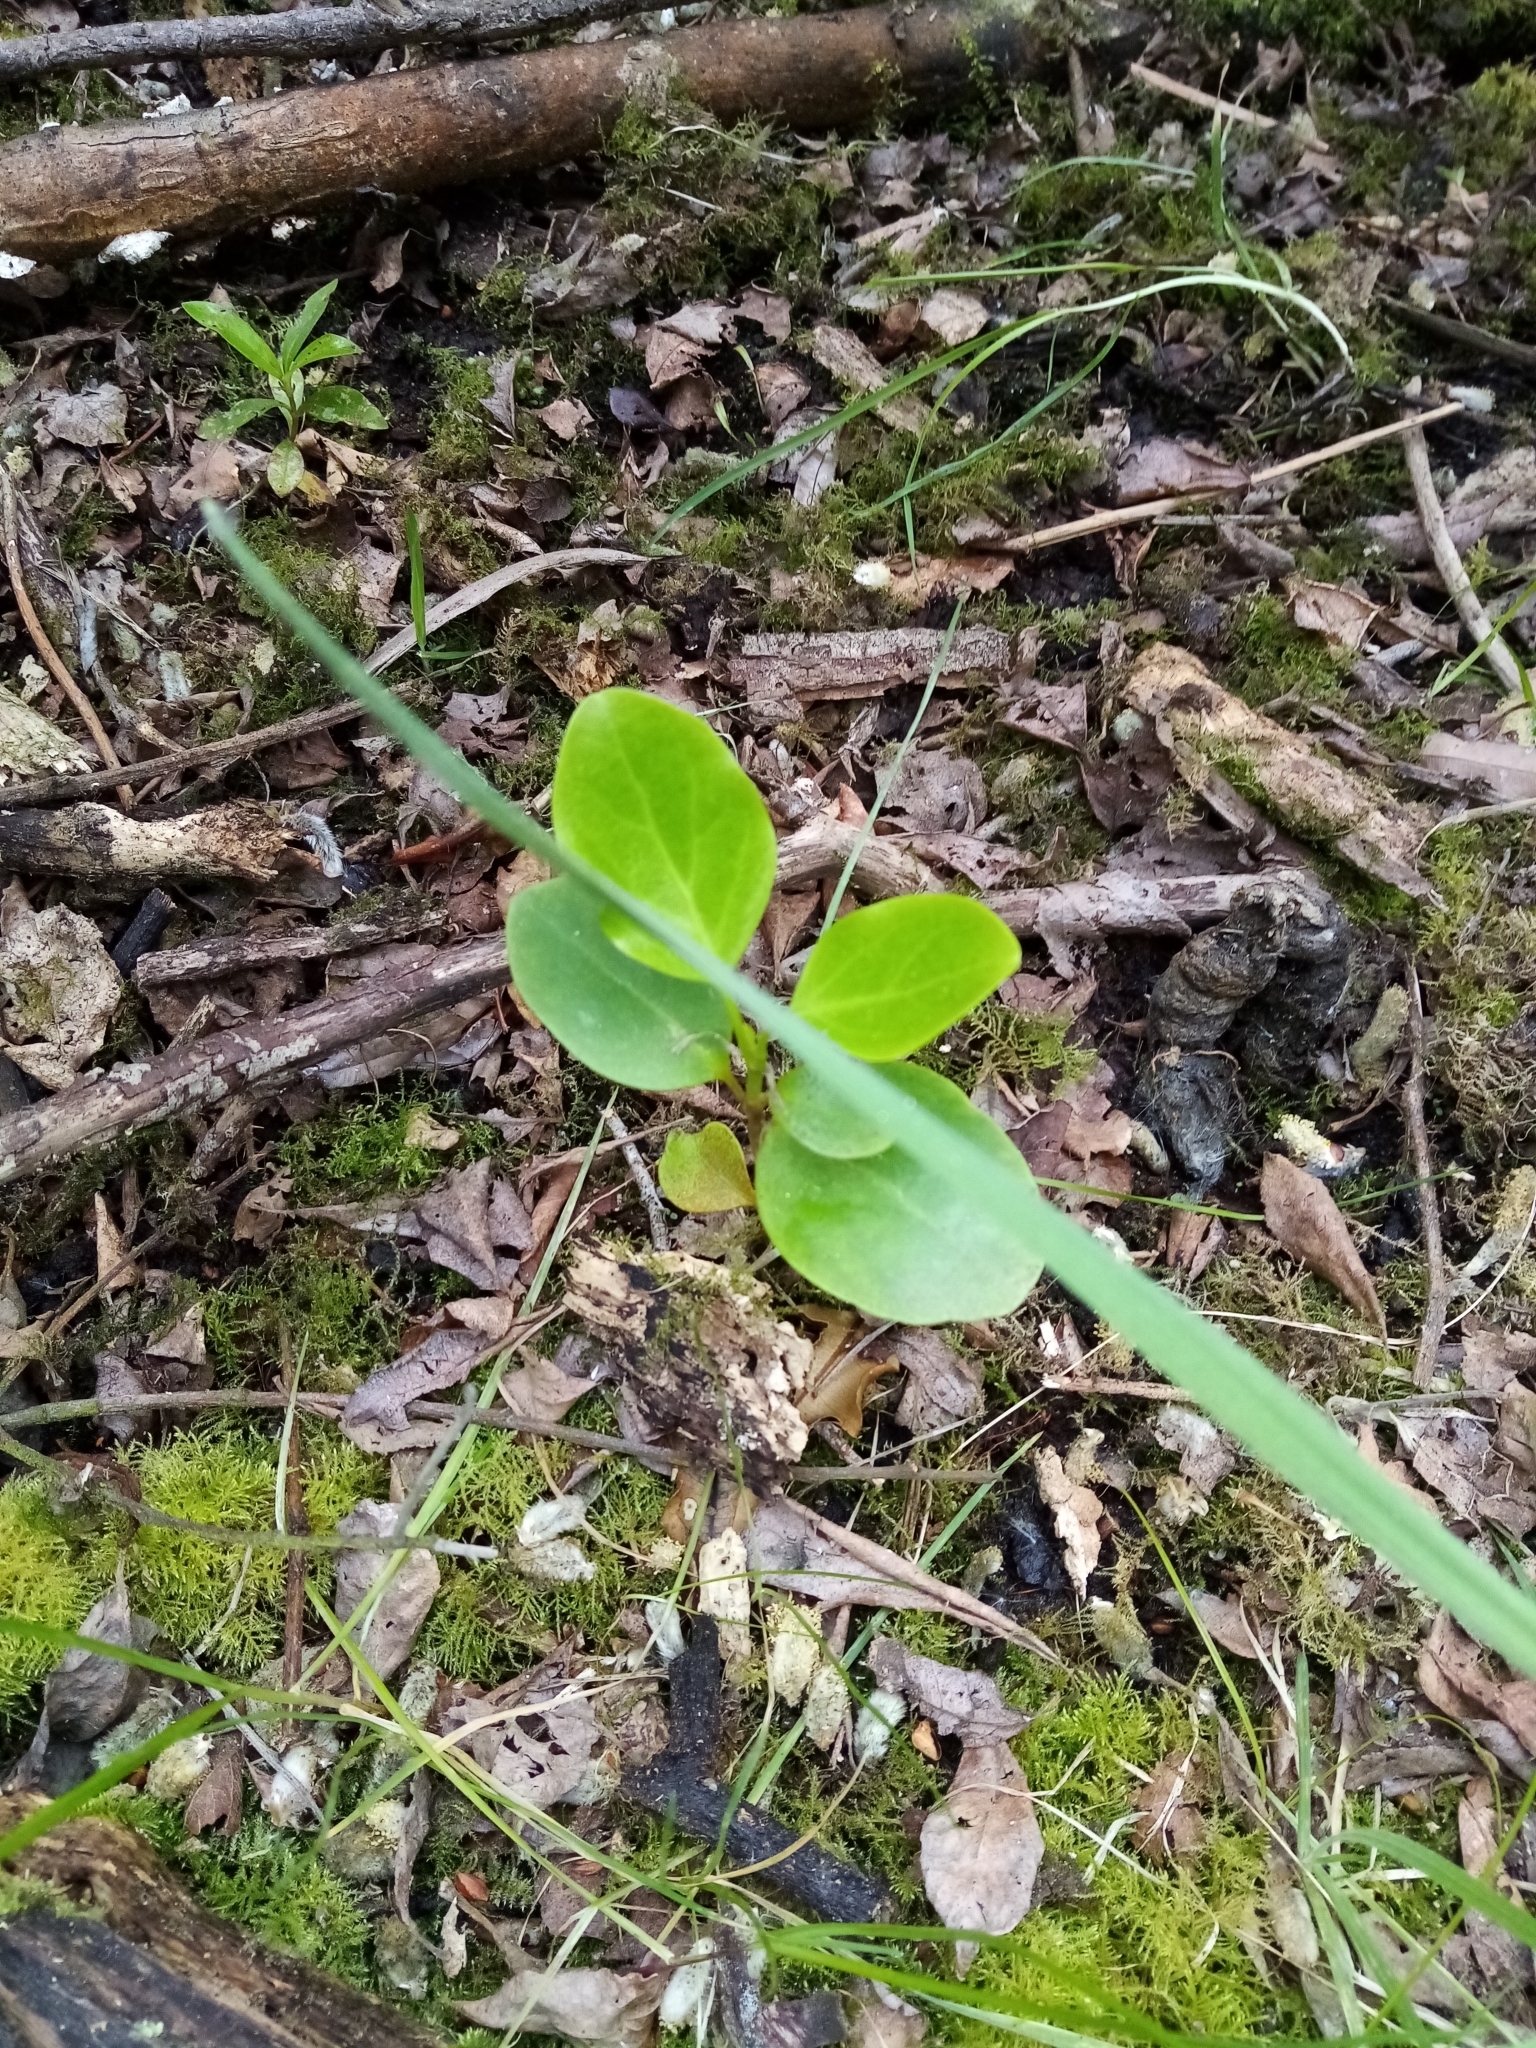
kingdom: Plantae
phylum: Tracheophyta
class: Magnoliopsida
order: Apiales
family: Griseliniaceae
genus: Griselinia
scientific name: Griselinia littoralis
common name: New zealand broadleaf
